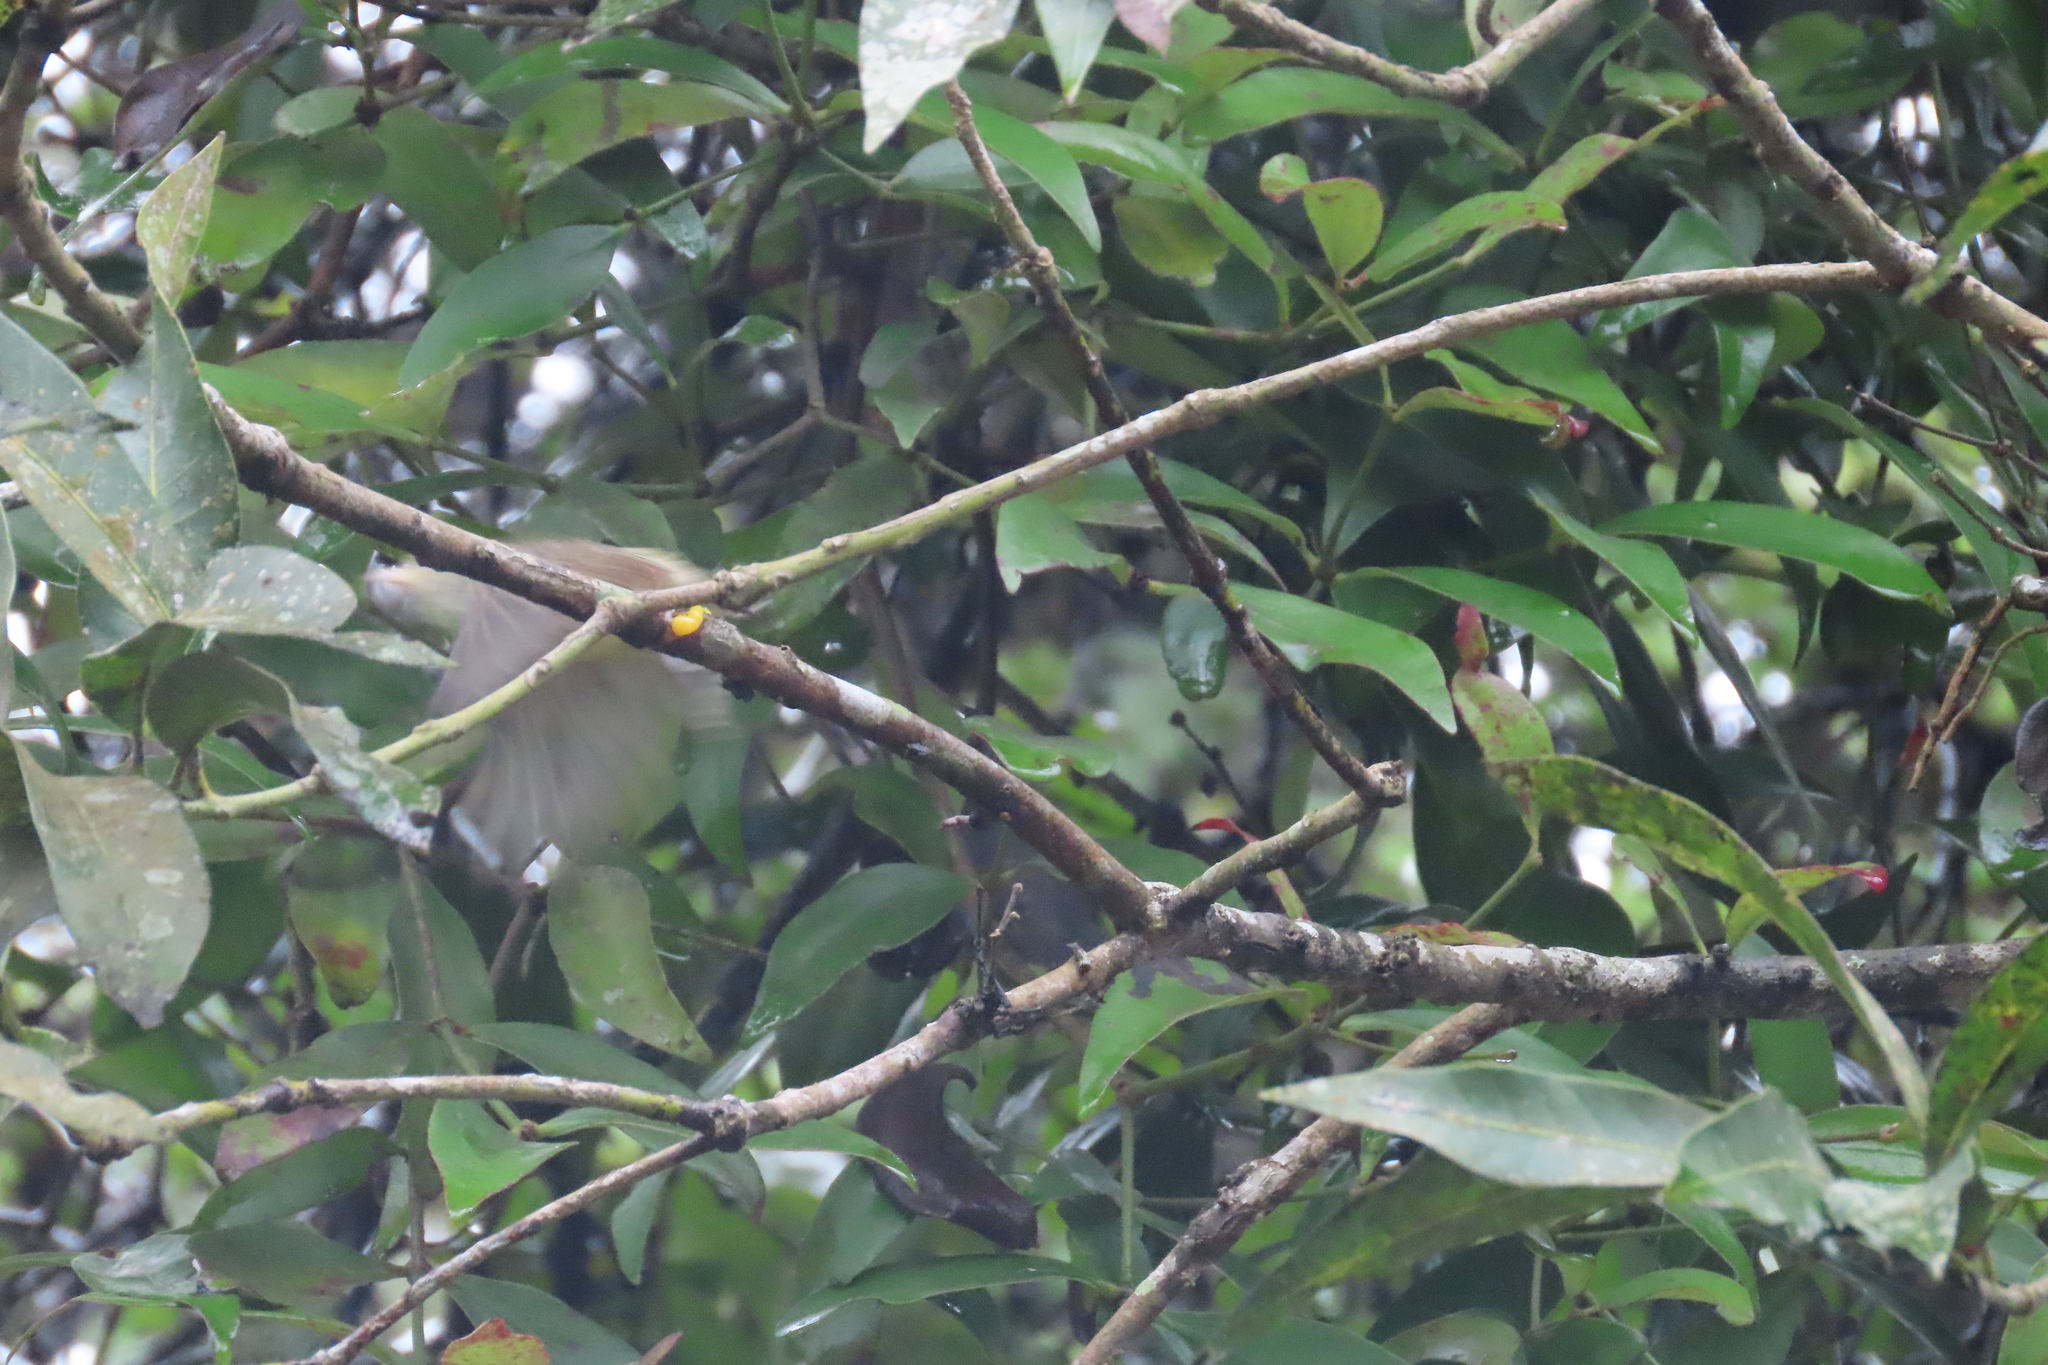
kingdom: Animalia
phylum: Chordata
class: Aves
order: Passeriformes
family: Dicaeidae
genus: Dicaeum
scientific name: Dicaeum erythrorhynchos
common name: Pale-billed flowerpecker
